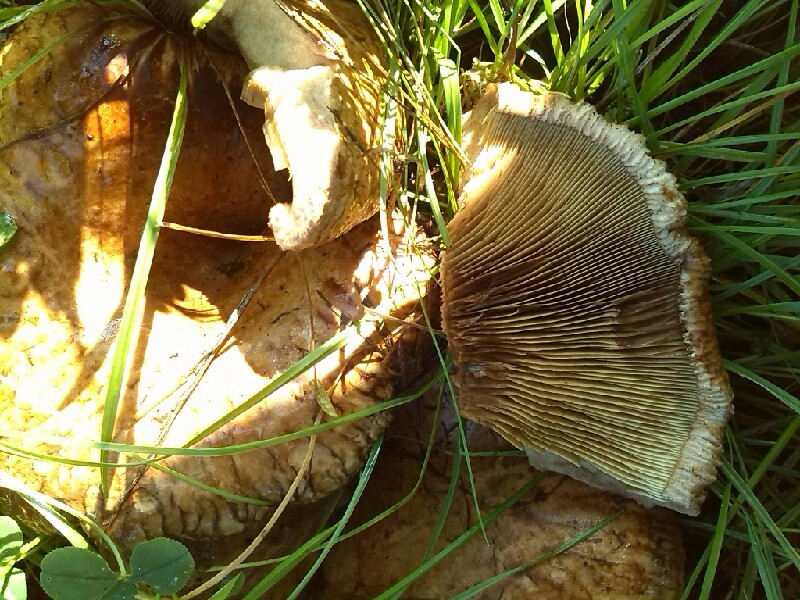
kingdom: Fungi
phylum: Basidiomycota
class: Agaricomycetes
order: Boletales
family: Paxillaceae
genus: Paxillus
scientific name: Paxillus involutus
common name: Brown roll rim
